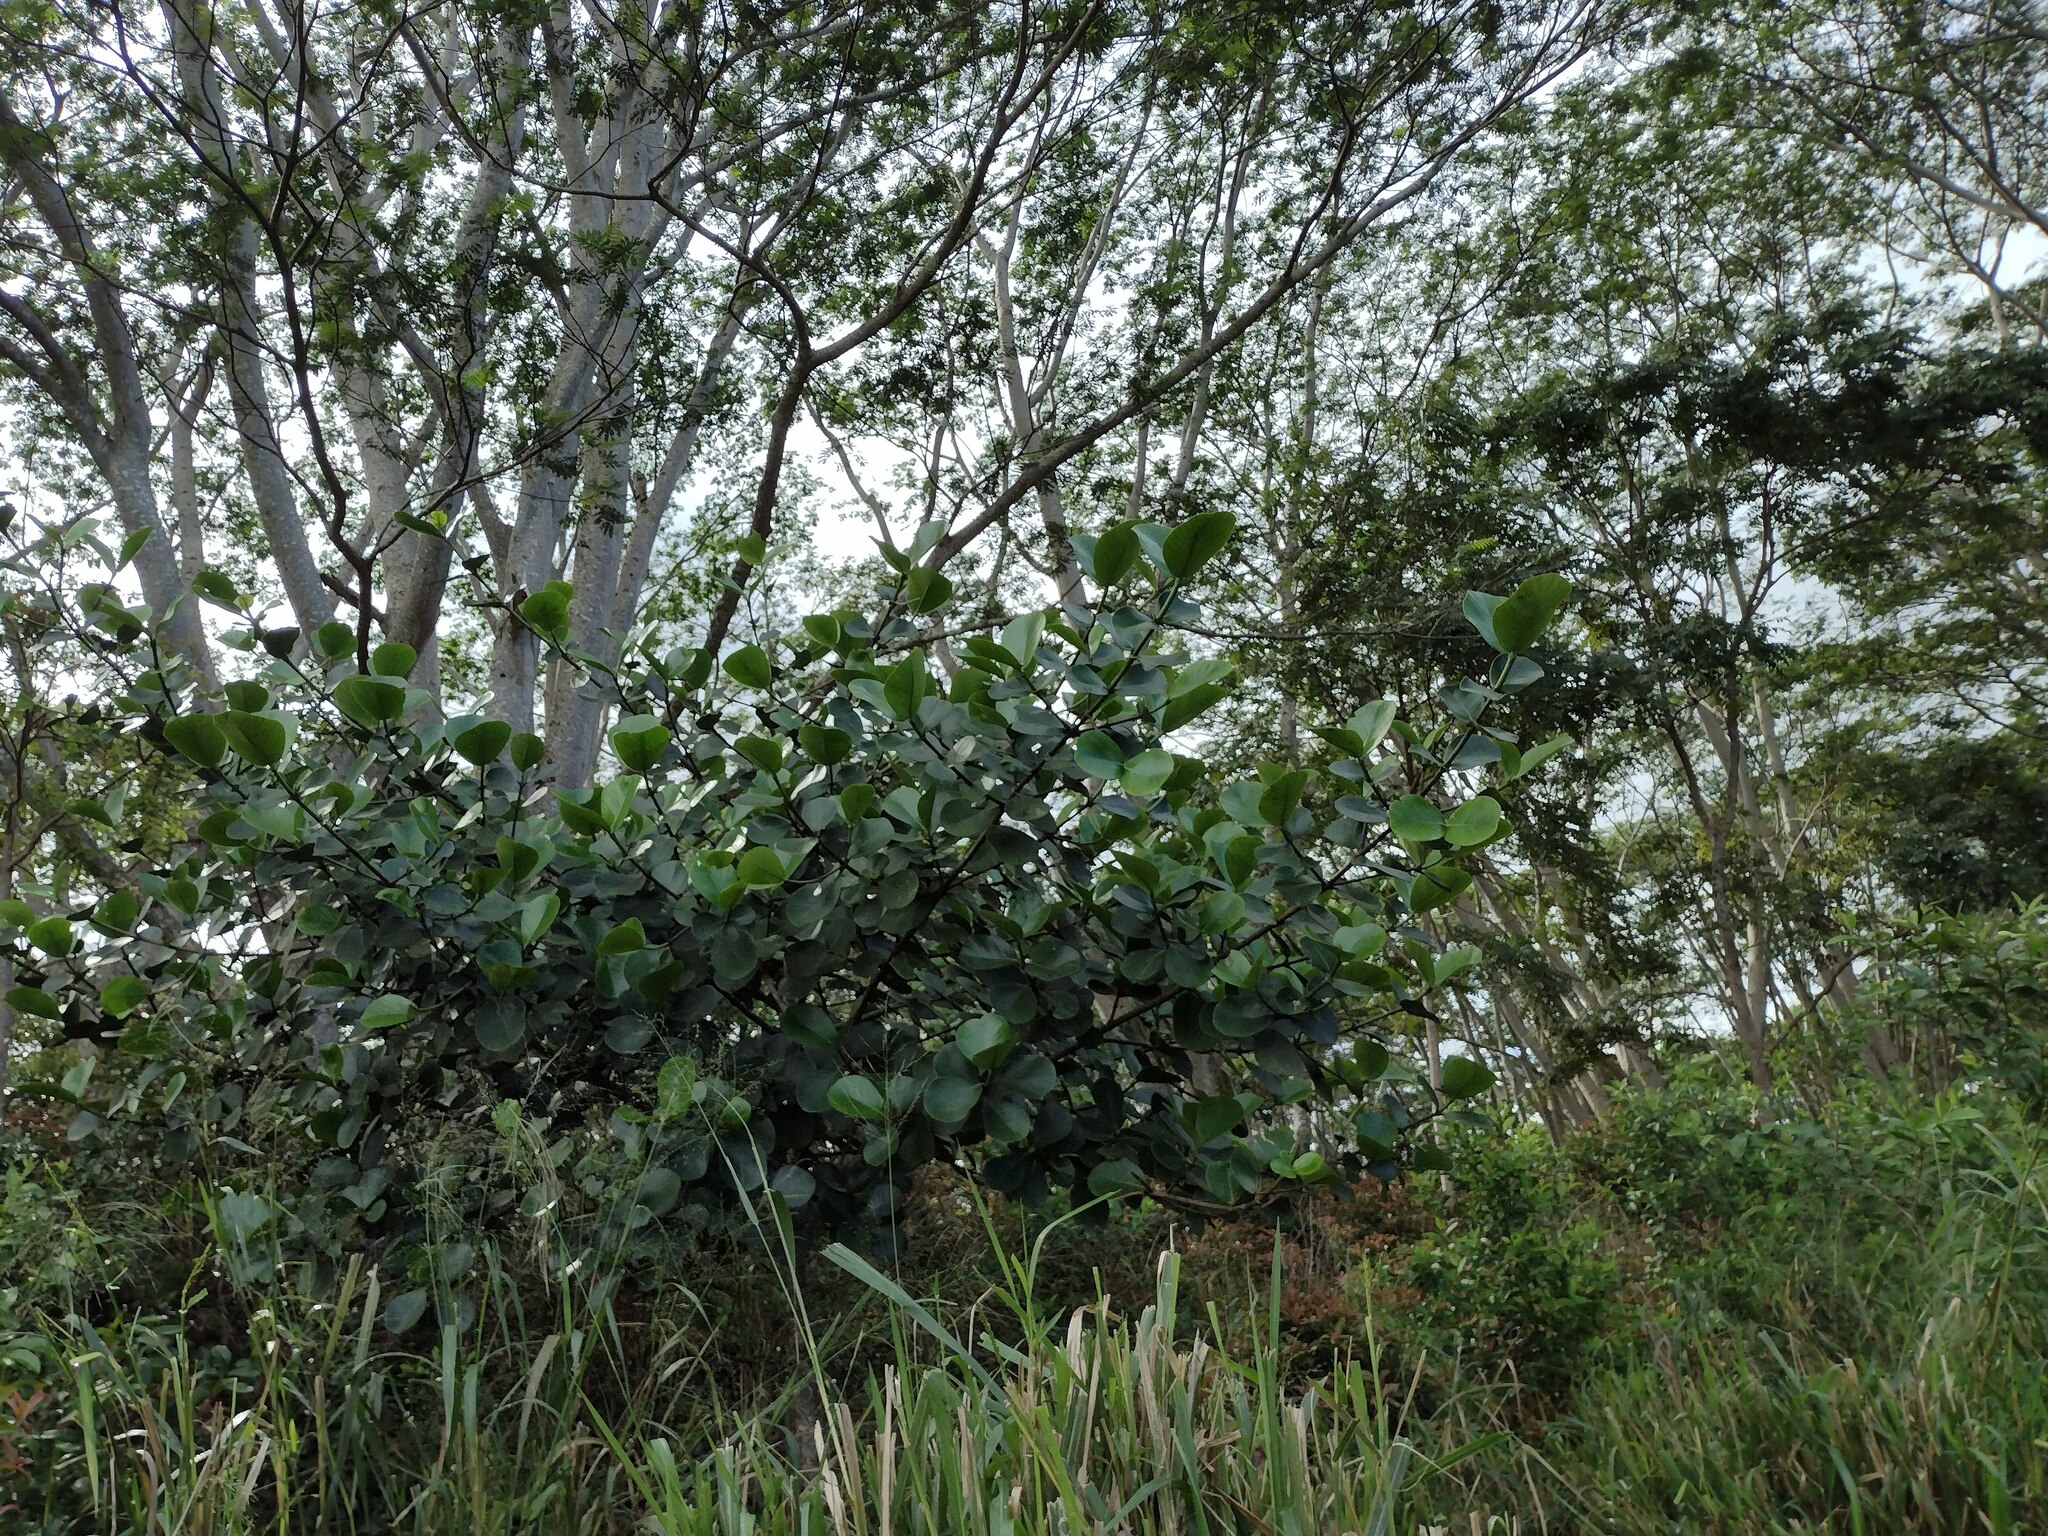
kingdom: Plantae
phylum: Tracheophyta
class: Magnoliopsida
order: Malpighiales
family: Clusiaceae
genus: Clusia
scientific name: Clusia rosea
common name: Scotch attorney
